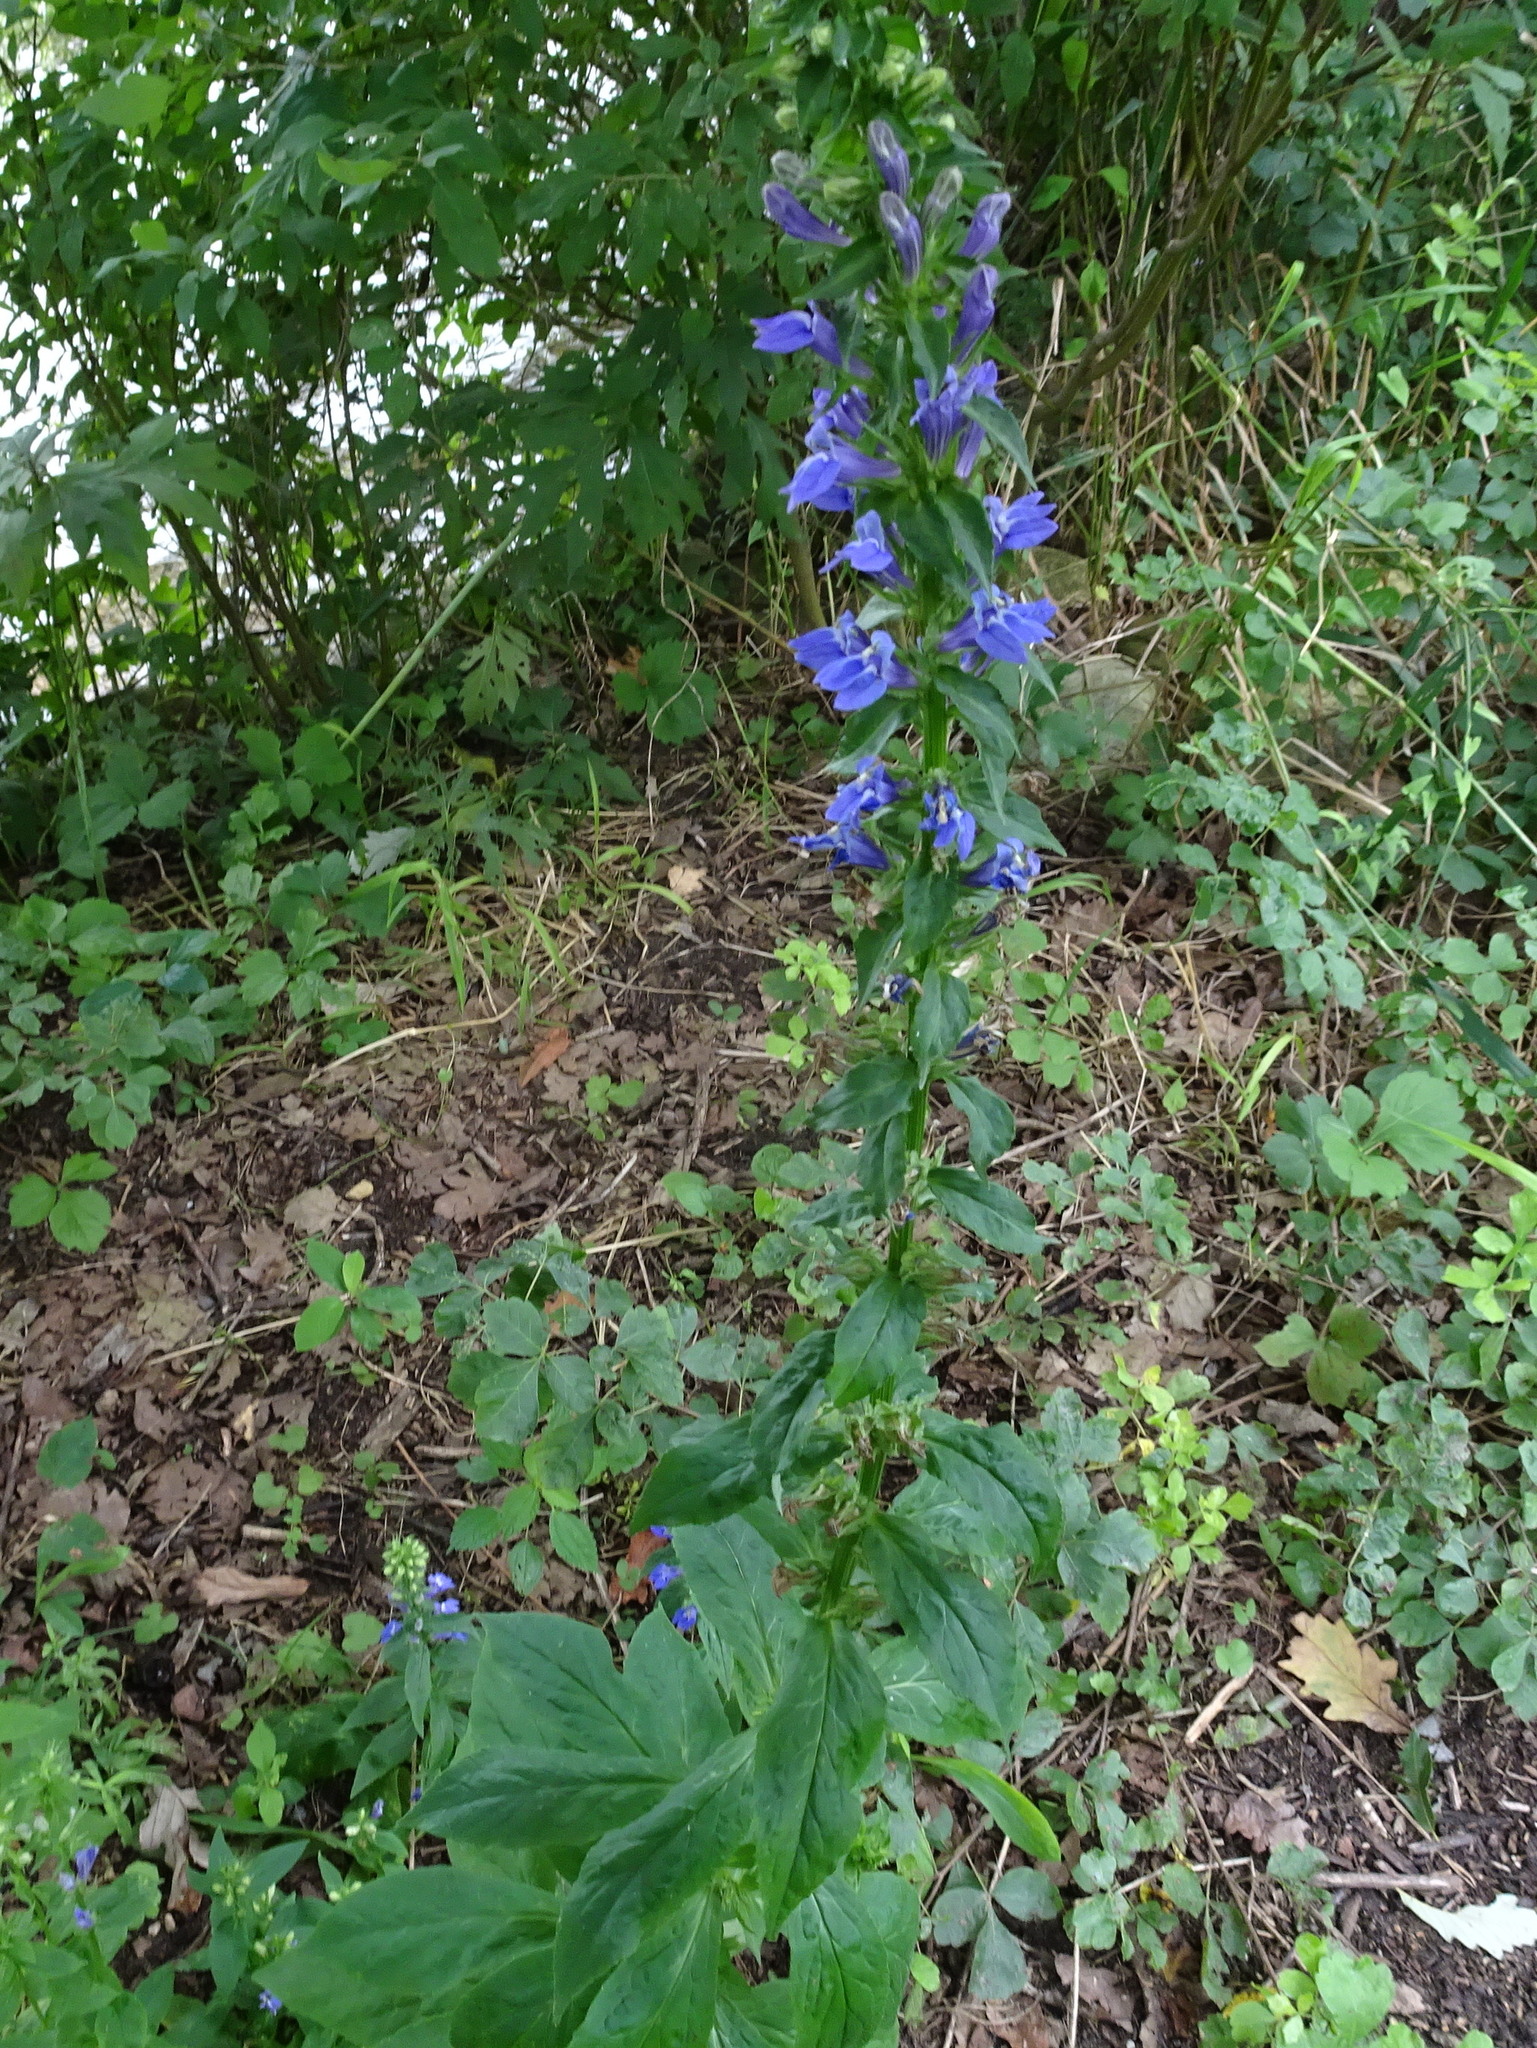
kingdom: Plantae
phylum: Tracheophyta
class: Magnoliopsida
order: Asterales
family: Campanulaceae
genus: Lobelia
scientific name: Lobelia siphilitica
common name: Great lobelia
